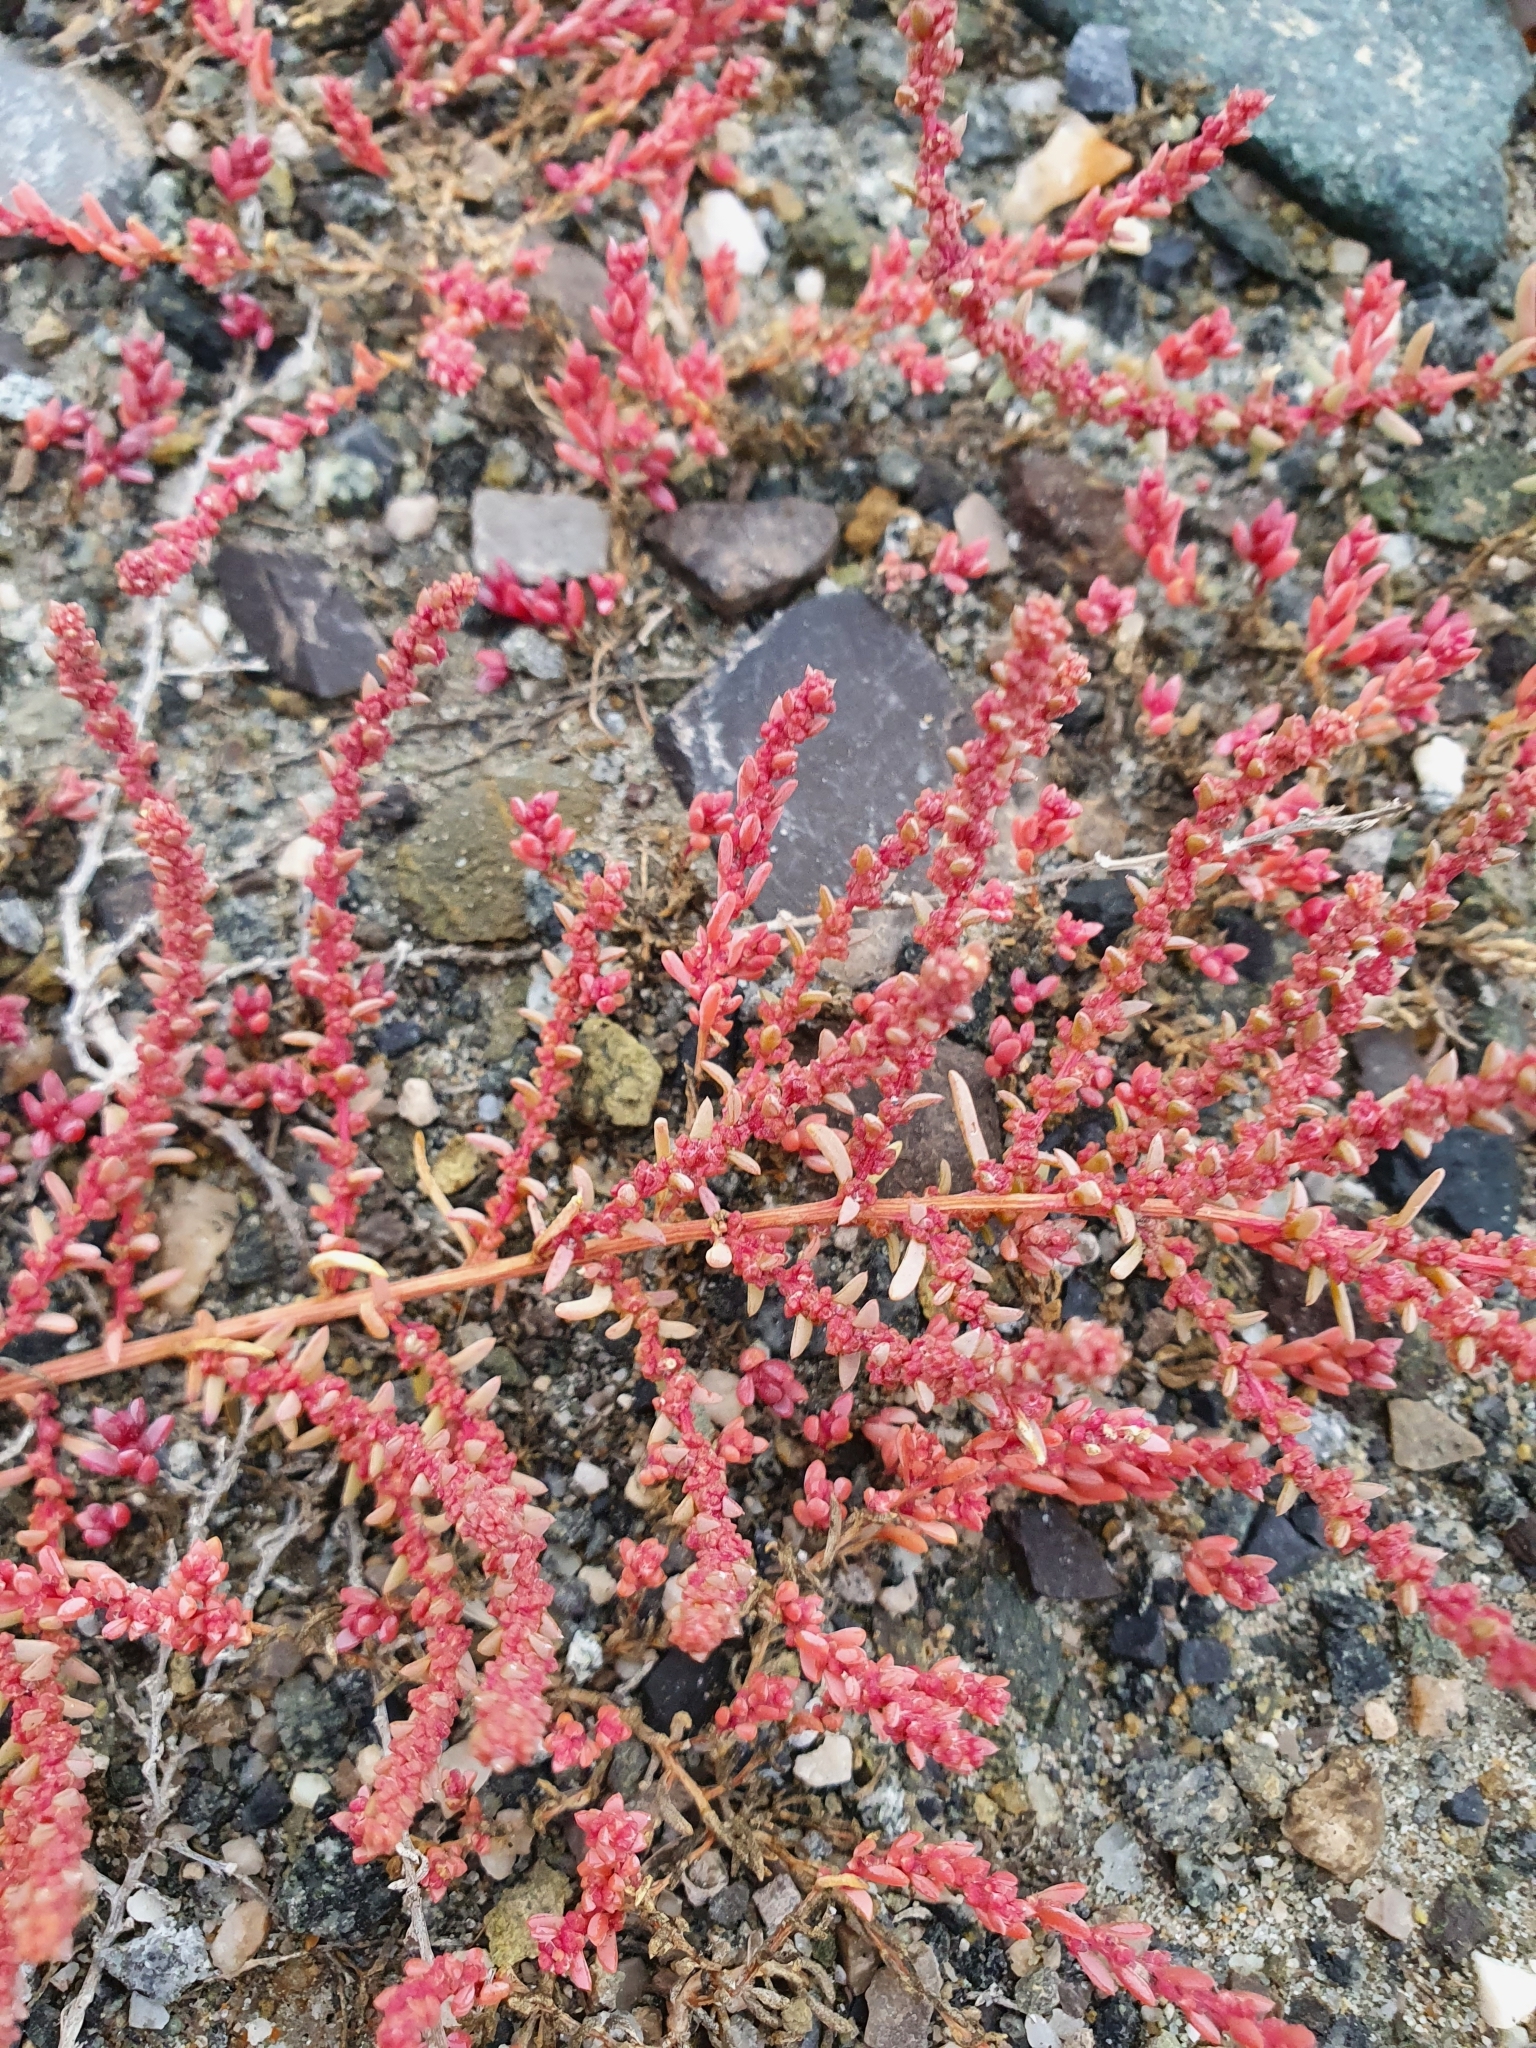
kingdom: Plantae
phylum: Tracheophyta
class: Magnoliopsida
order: Caryophyllales
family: Amaranthaceae
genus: Suaeda
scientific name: Suaeda corniculata
